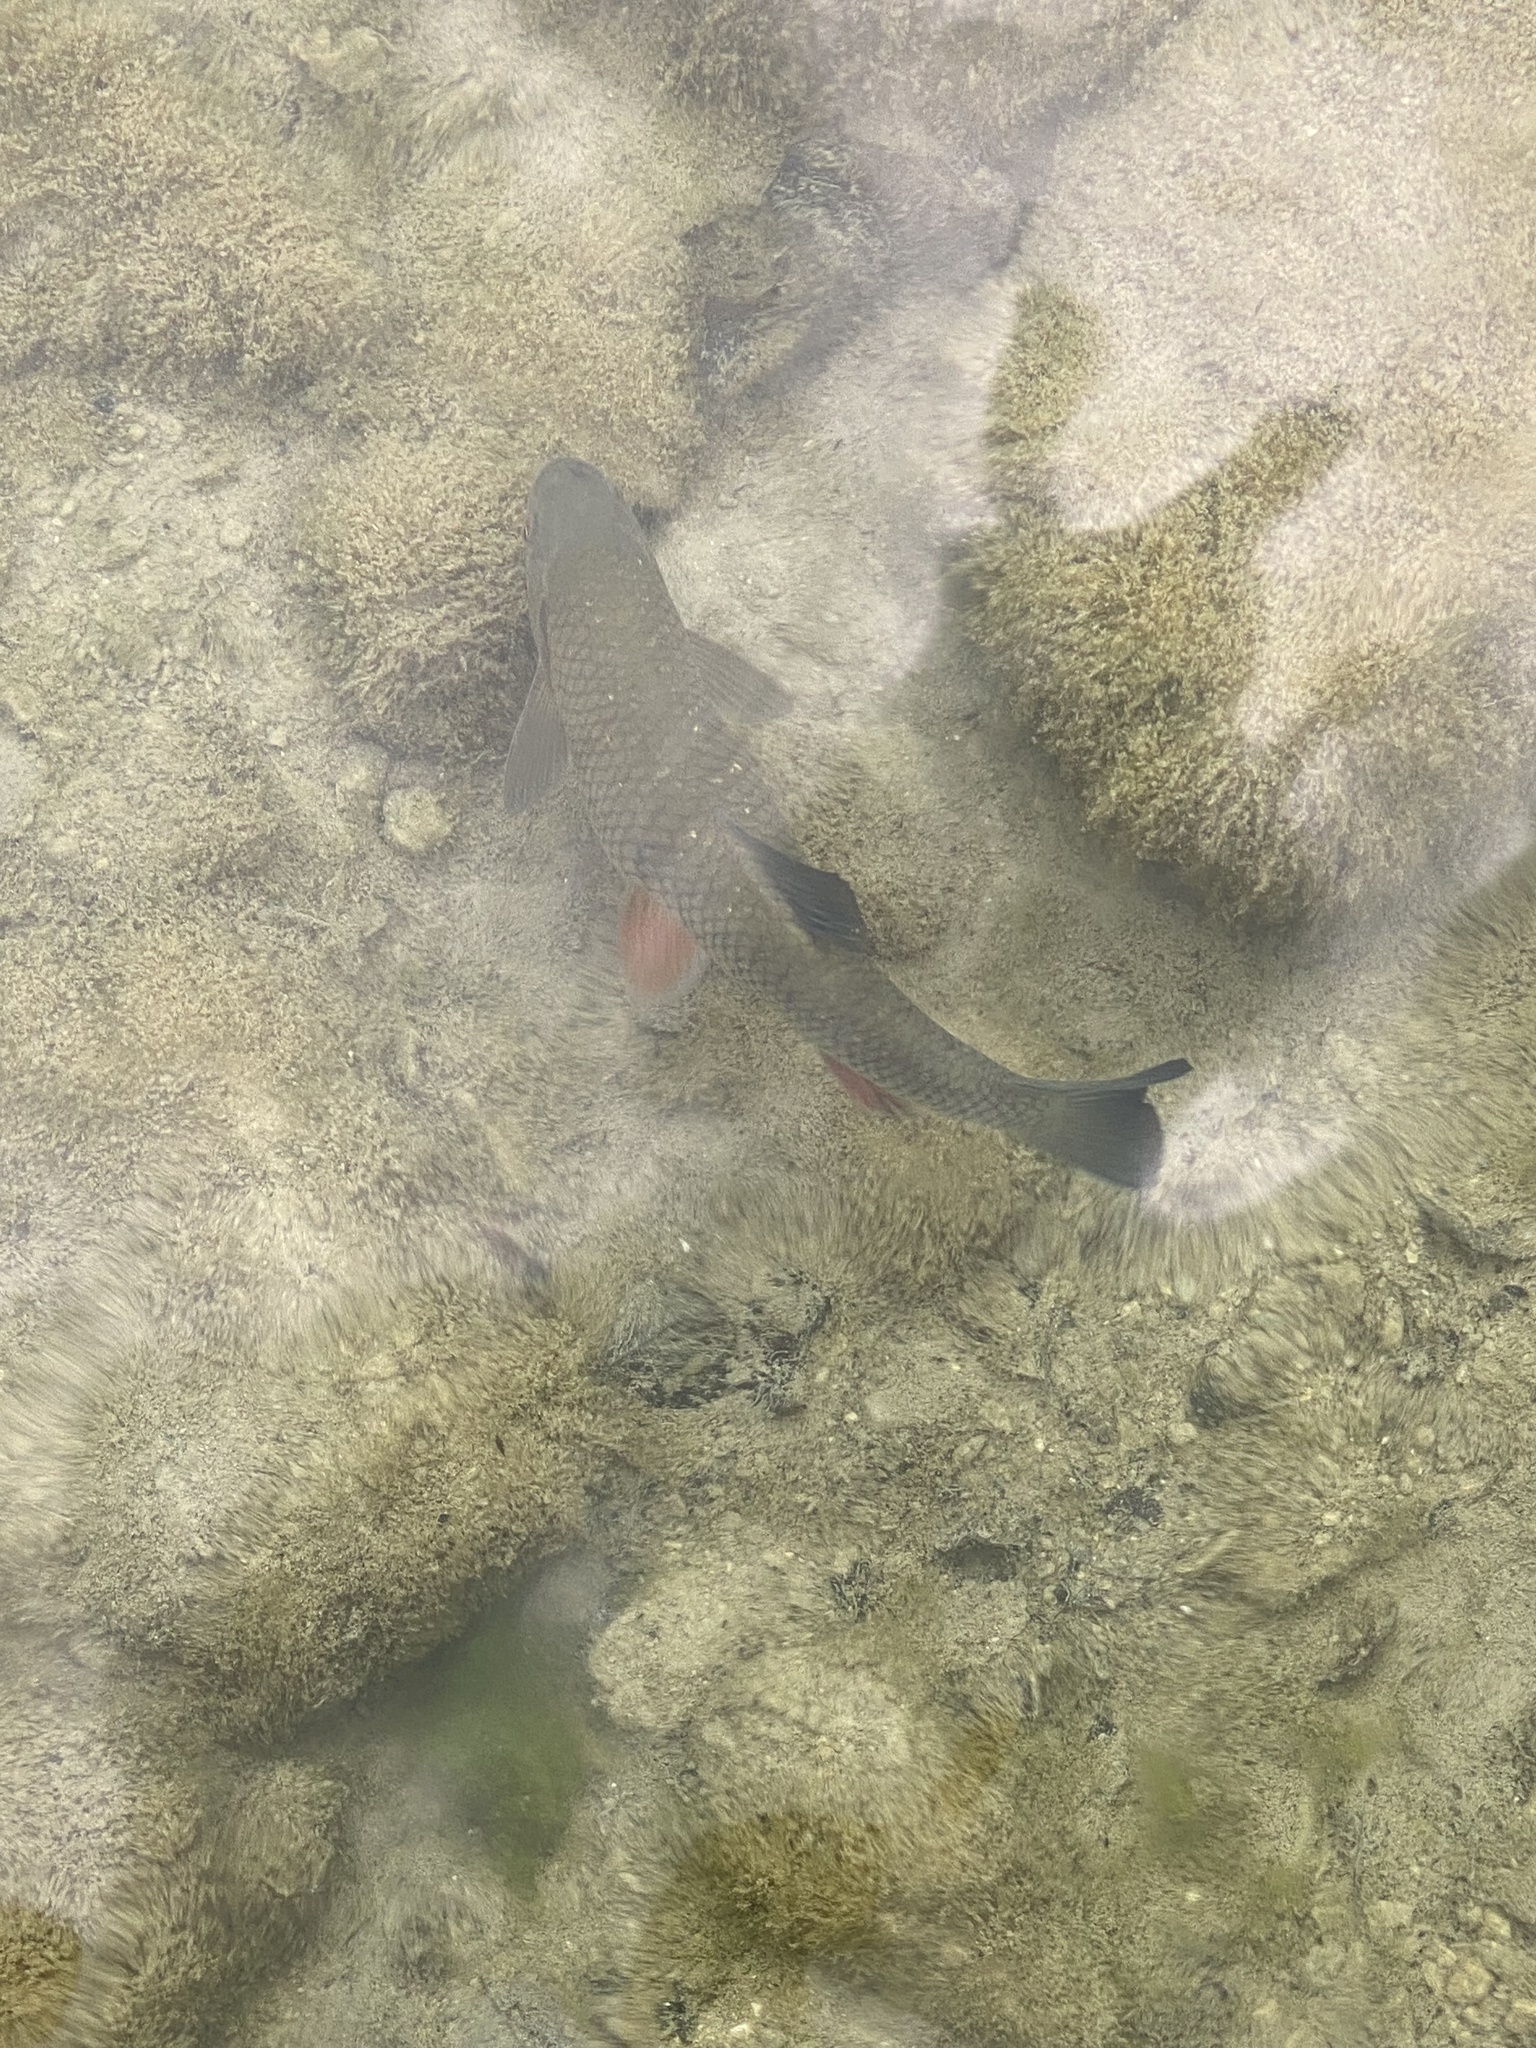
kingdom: Animalia
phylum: Chordata
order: Cypriniformes
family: Cyprinidae
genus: Squalius
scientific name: Squalius cephalus
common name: Chub
